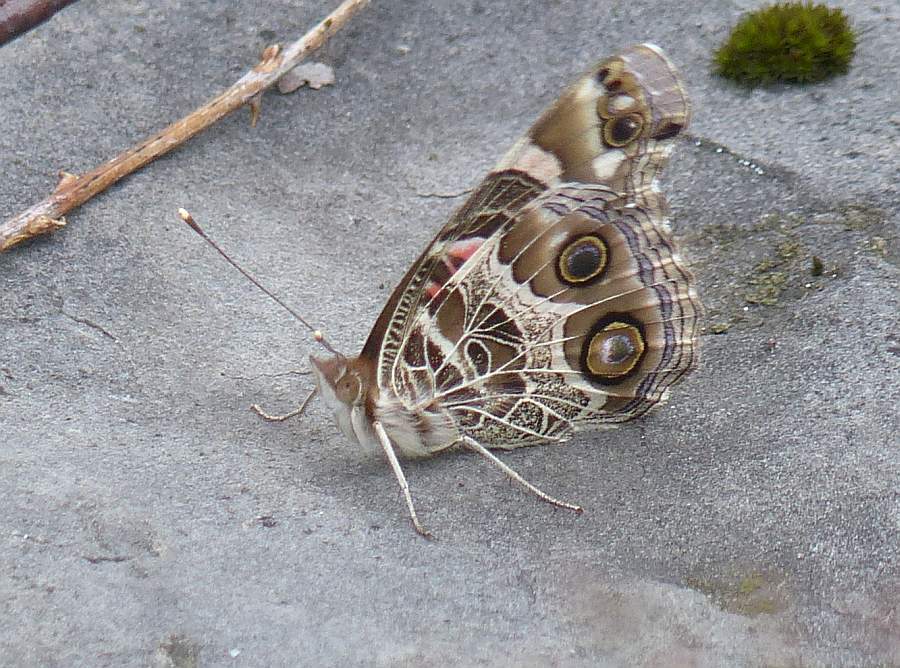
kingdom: Animalia
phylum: Arthropoda
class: Insecta
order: Lepidoptera
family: Nymphalidae
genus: Vanessa
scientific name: Vanessa virginiensis
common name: American lady
